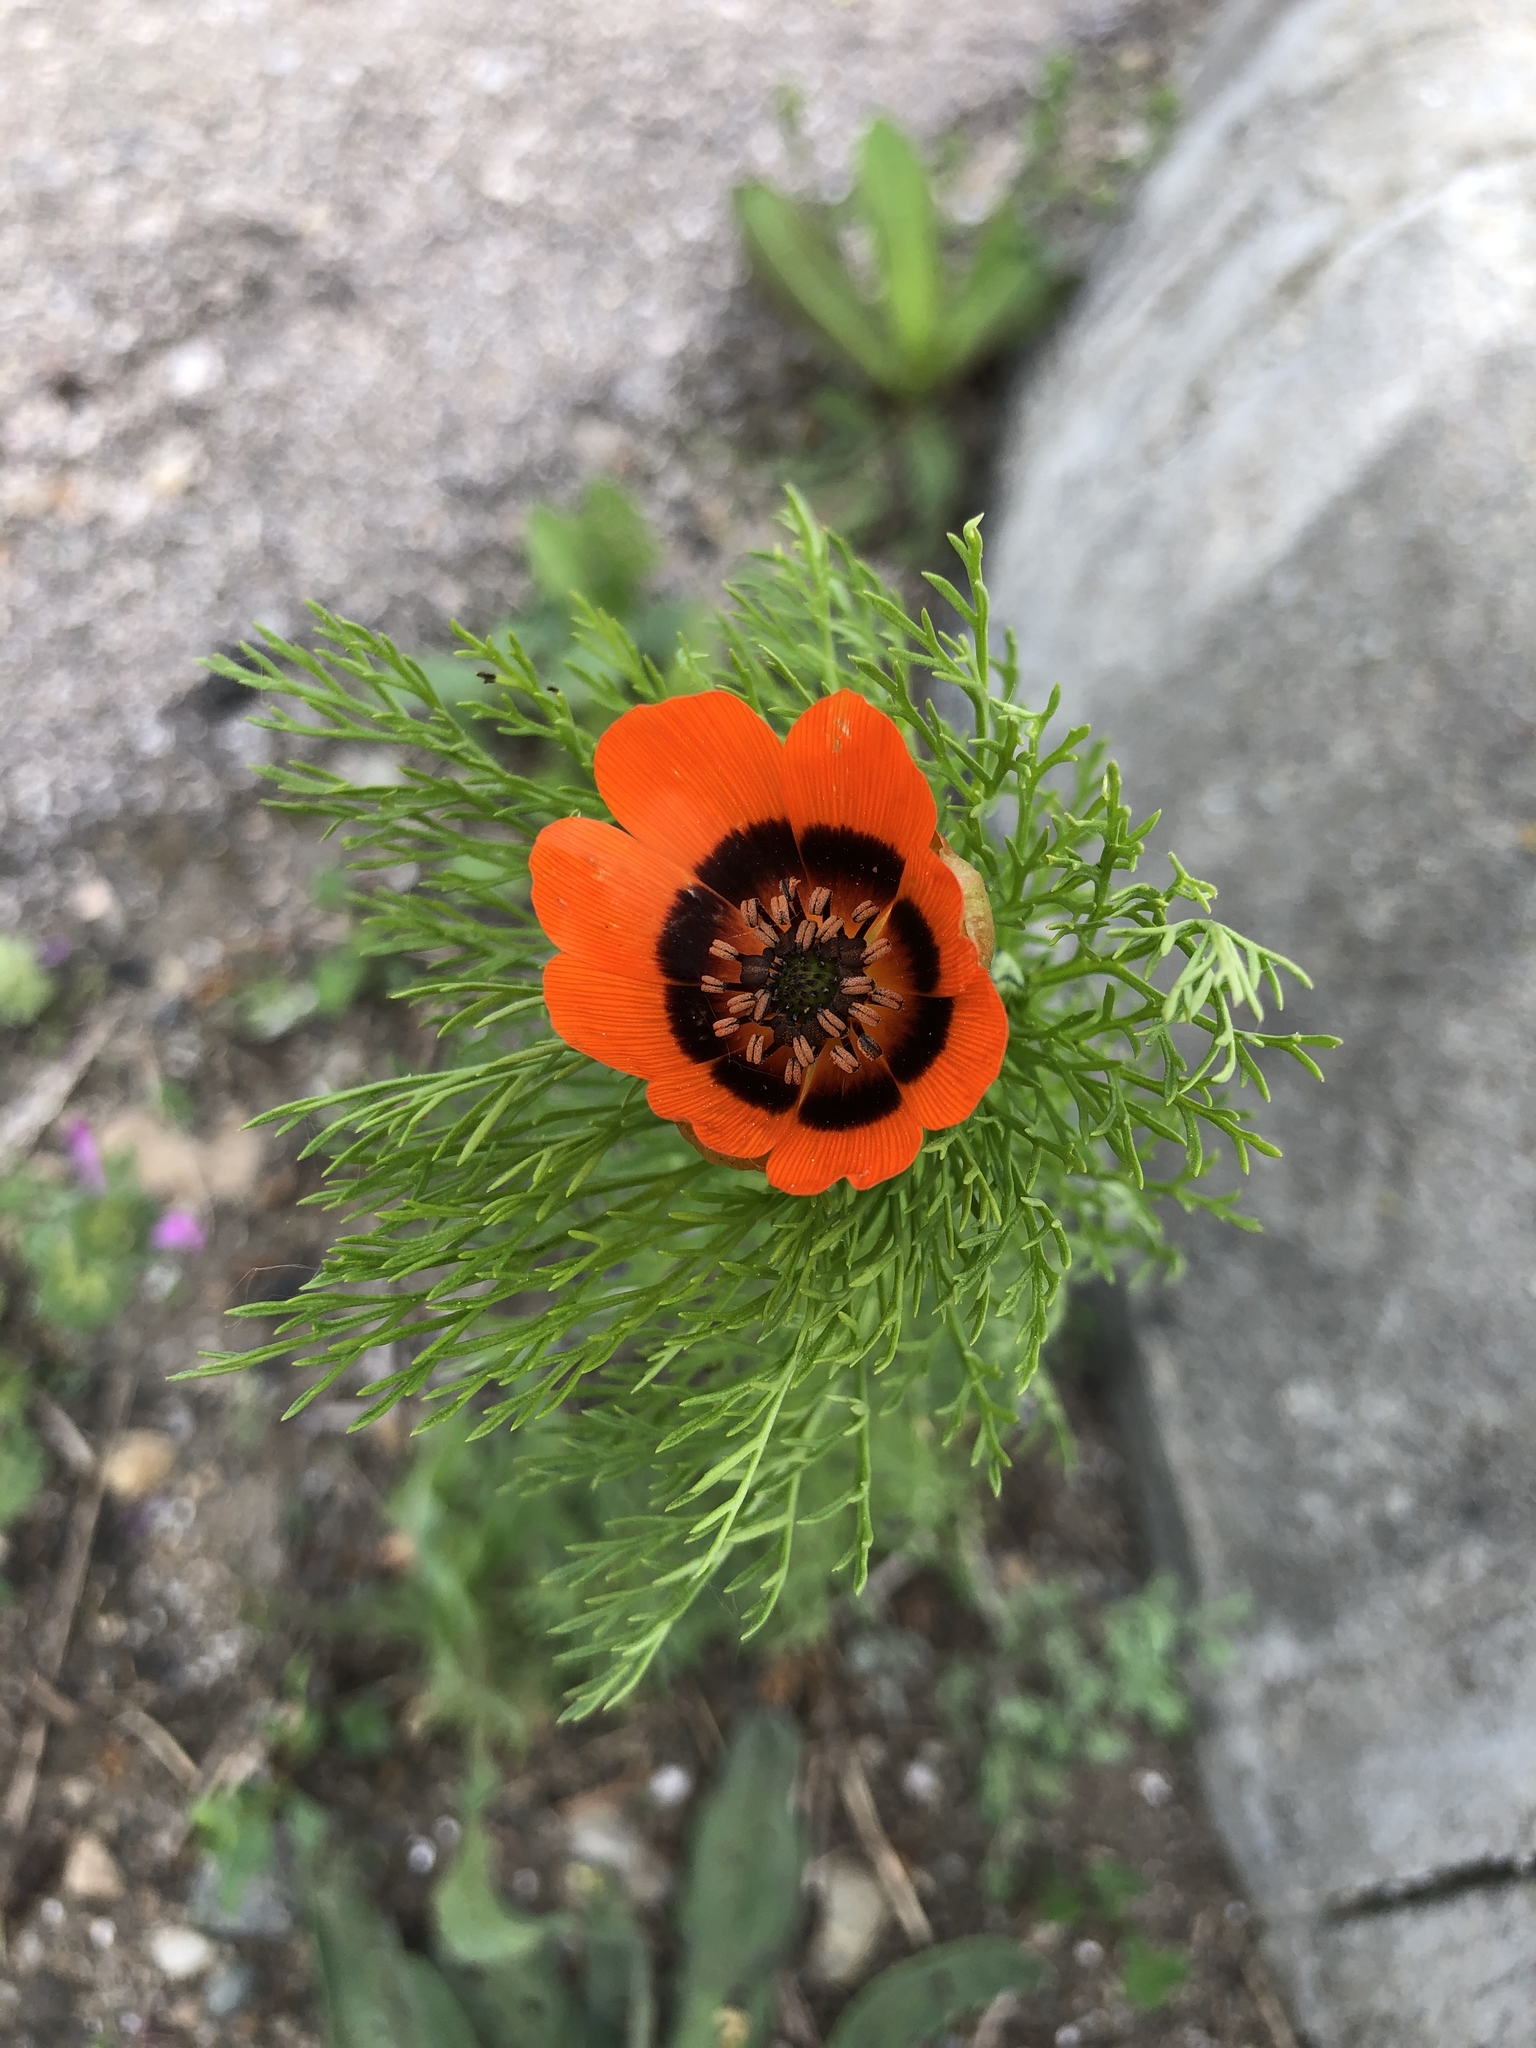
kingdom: Plantae
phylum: Tracheophyta
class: Magnoliopsida
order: Ranunculales
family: Ranunculaceae
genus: Adonis
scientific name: Adonis aestivalis
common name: Summer pheasant's-eye
